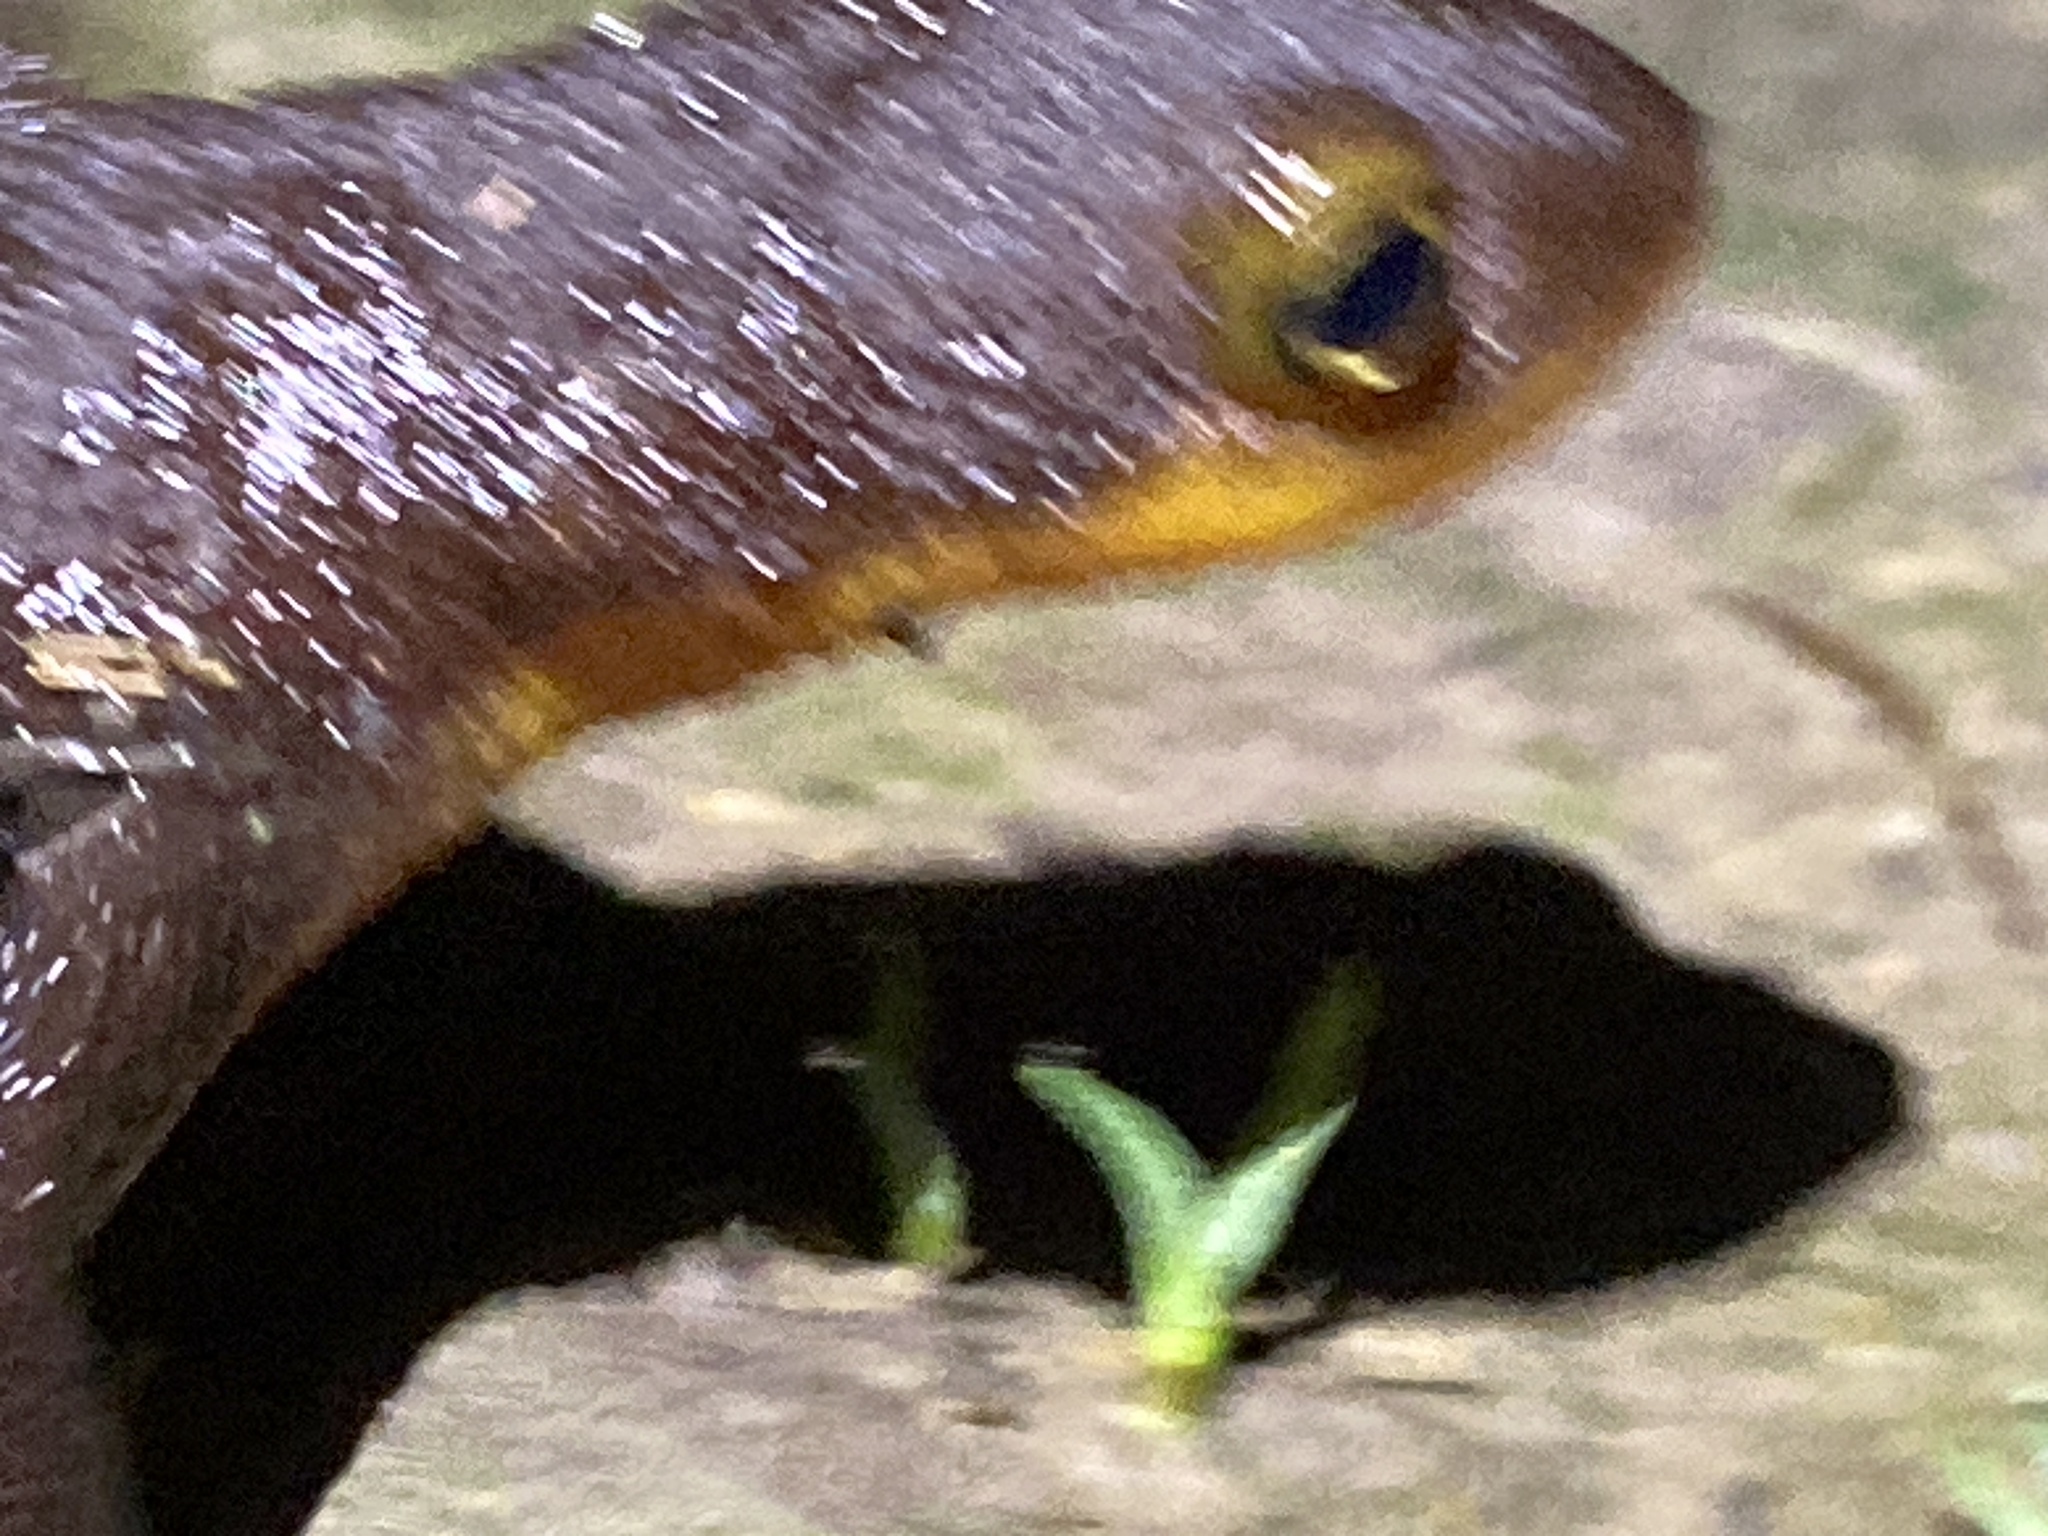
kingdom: Animalia
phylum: Chordata
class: Amphibia
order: Caudata
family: Salamandridae
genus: Taricha
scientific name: Taricha torosa
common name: California newt
